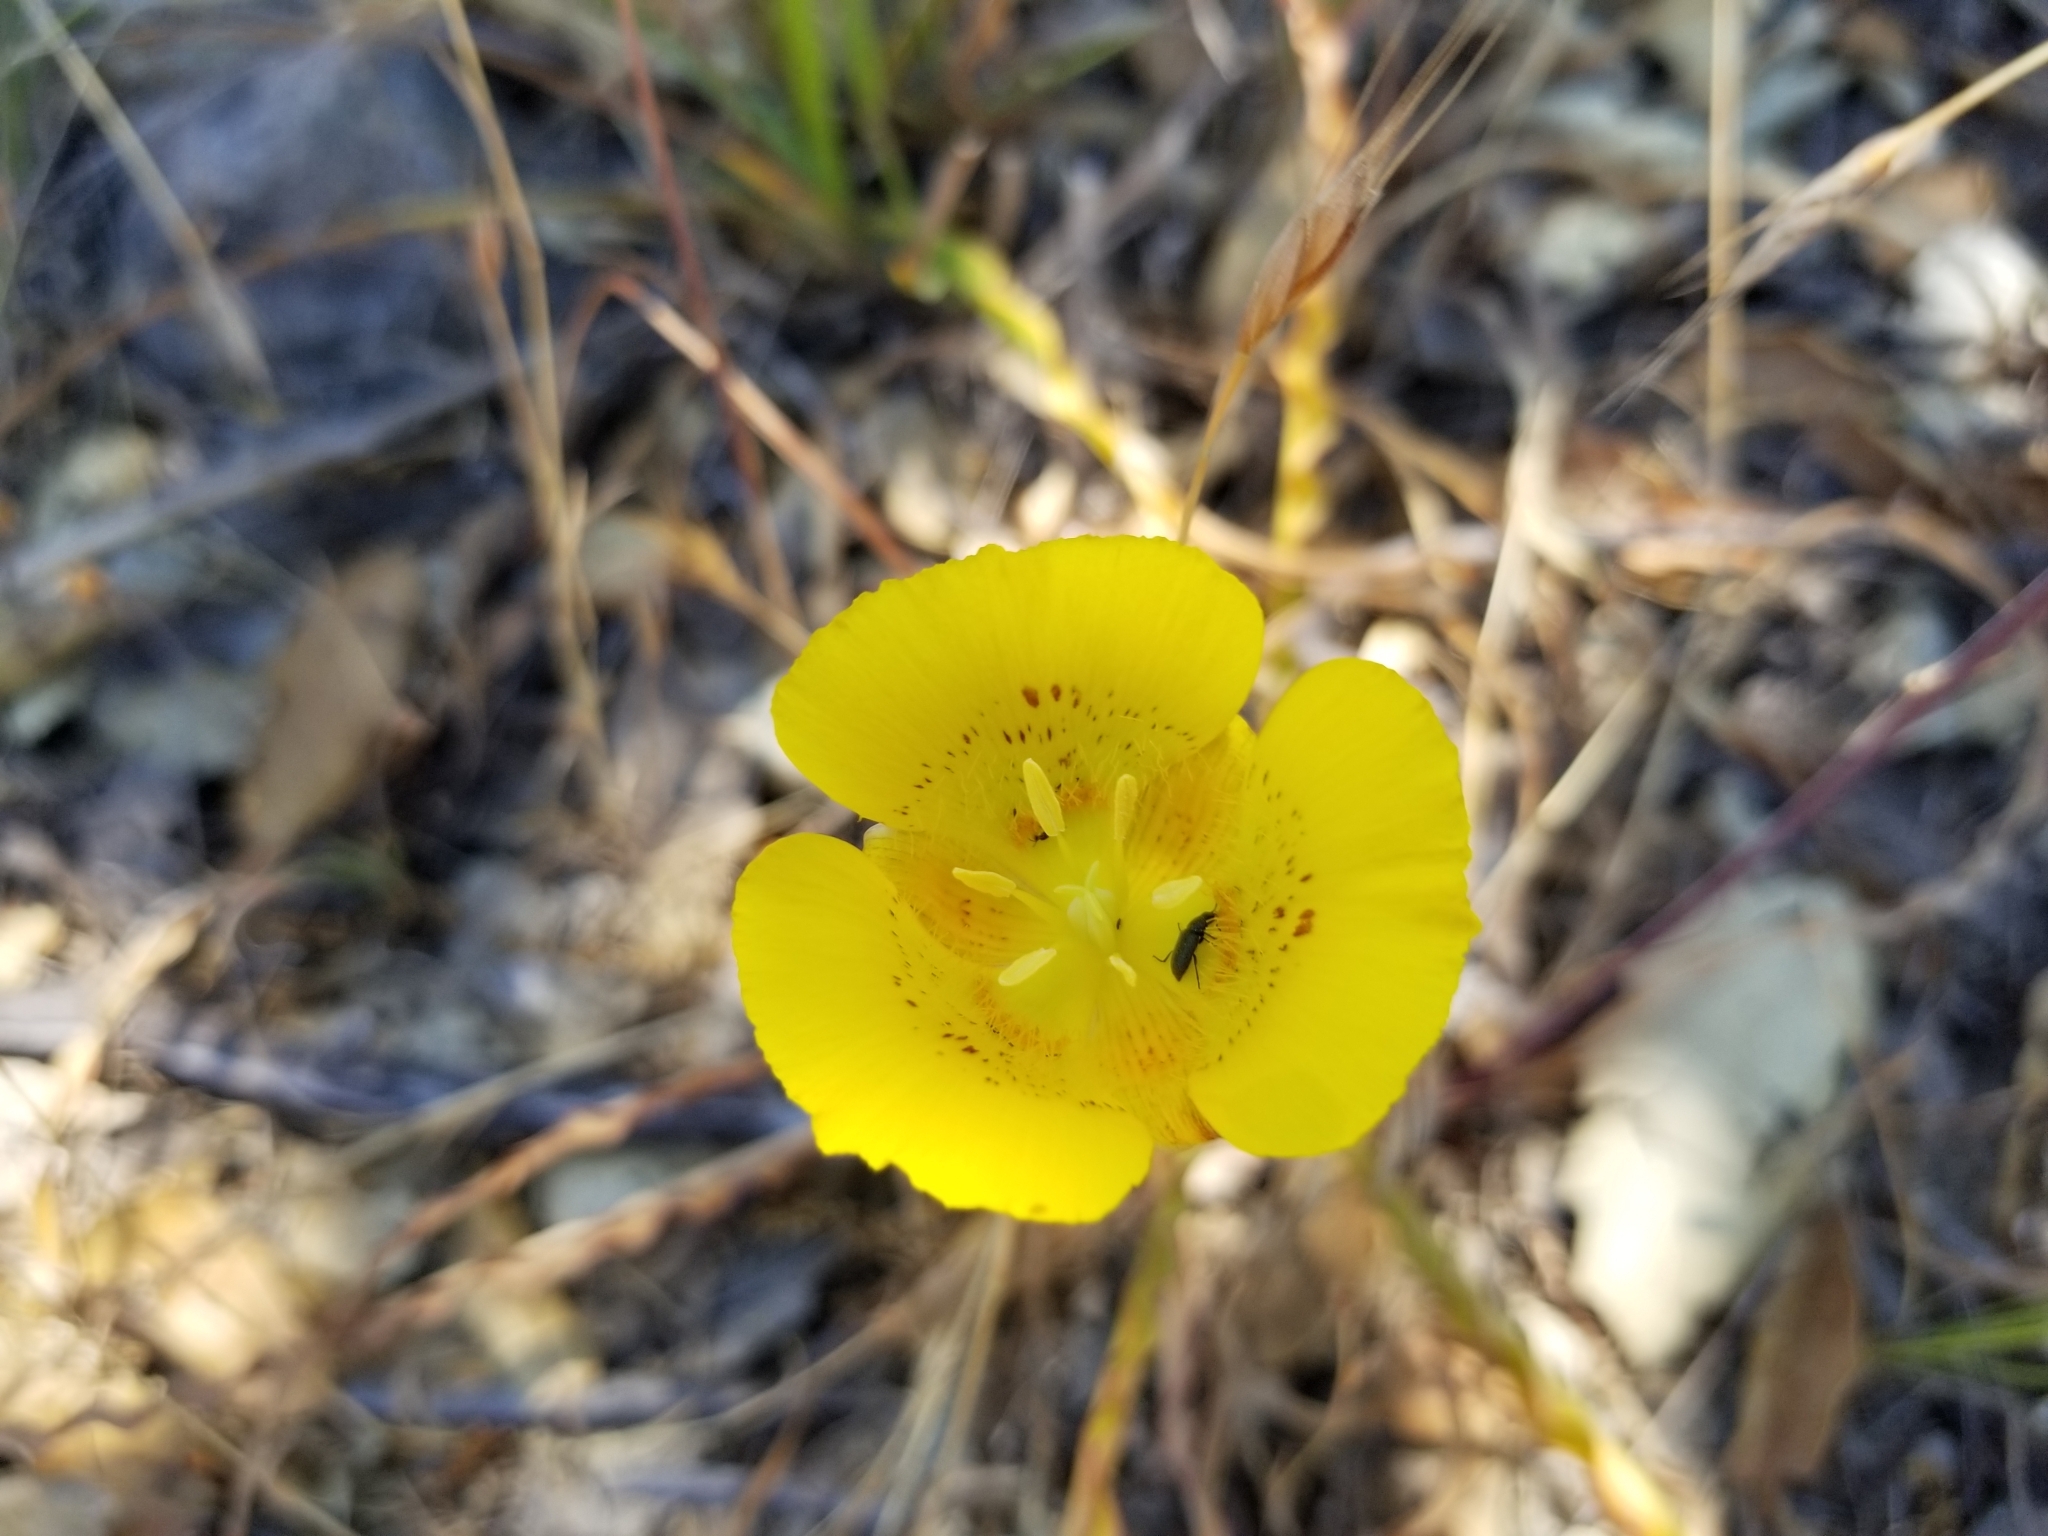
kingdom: Plantae
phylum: Tracheophyta
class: Liliopsida
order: Liliales
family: Liliaceae
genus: Calochortus
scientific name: Calochortus luteus
